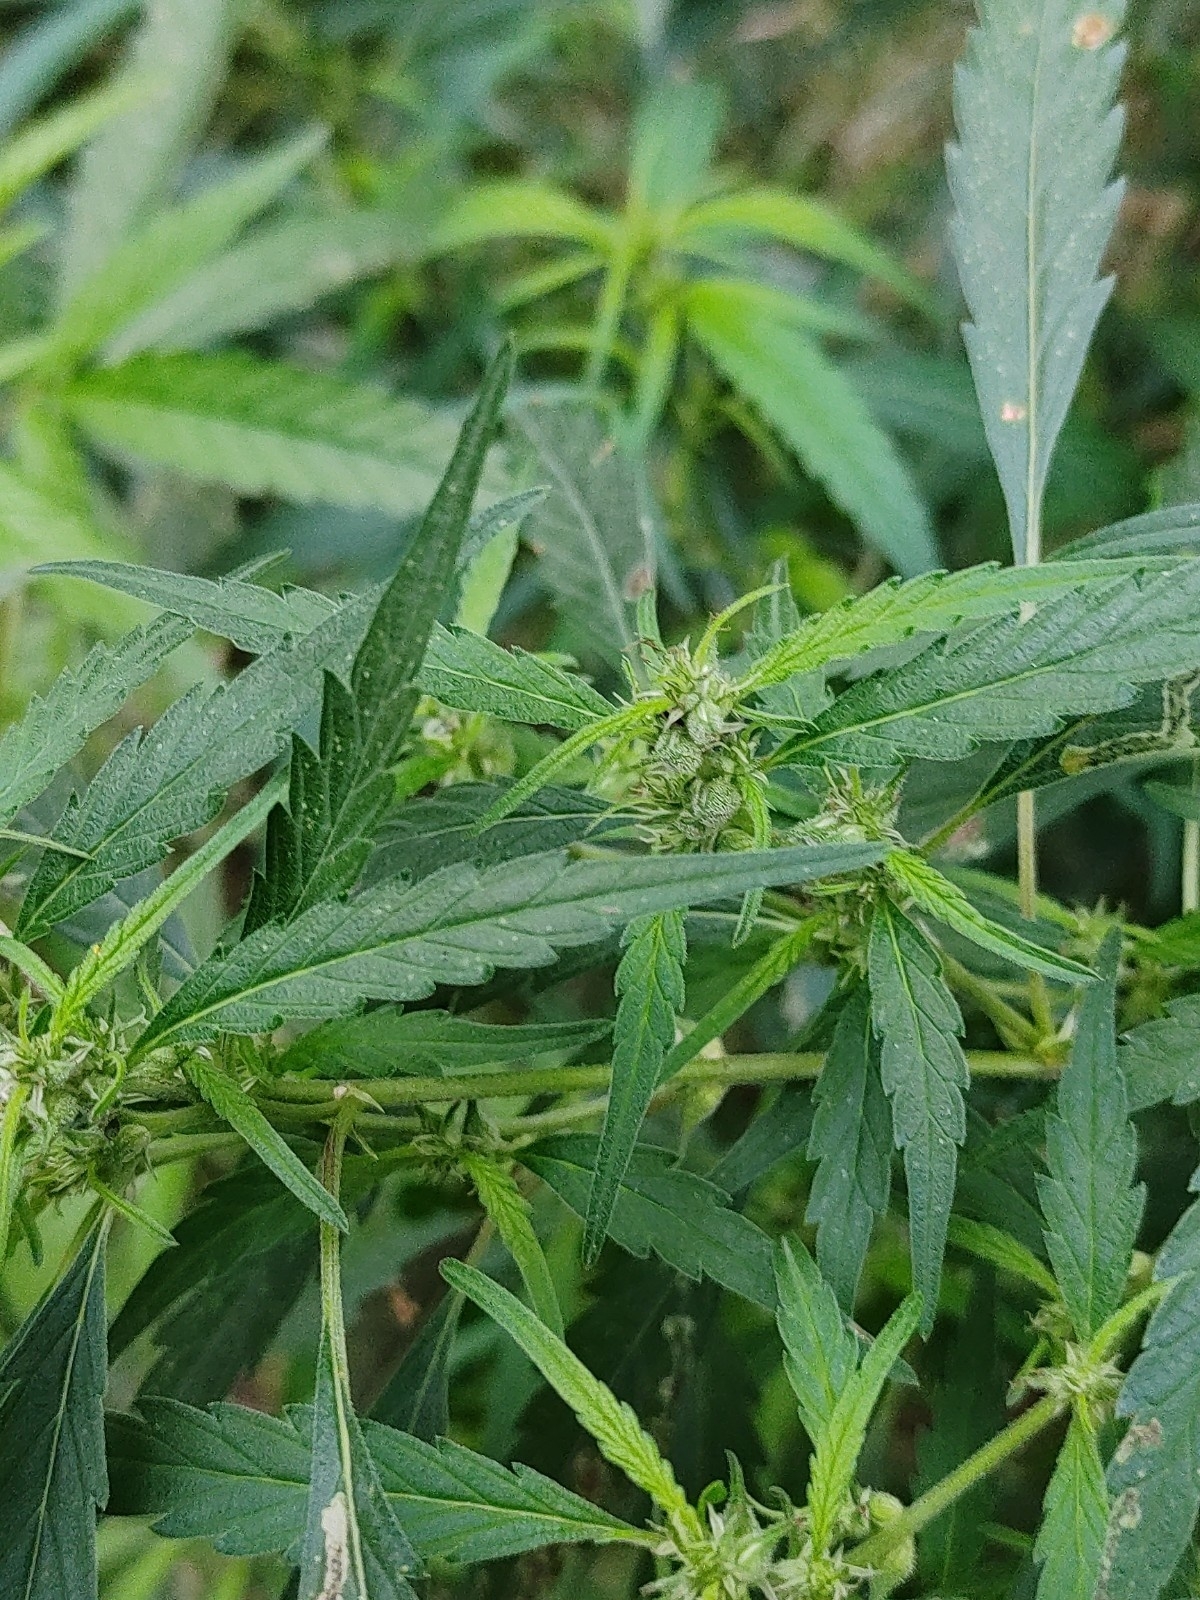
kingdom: Plantae
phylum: Tracheophyta
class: Magnoliopsida
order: Rosales
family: Cannabaceae
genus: Cannabis
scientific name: Cannabis sativa
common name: Hemp
